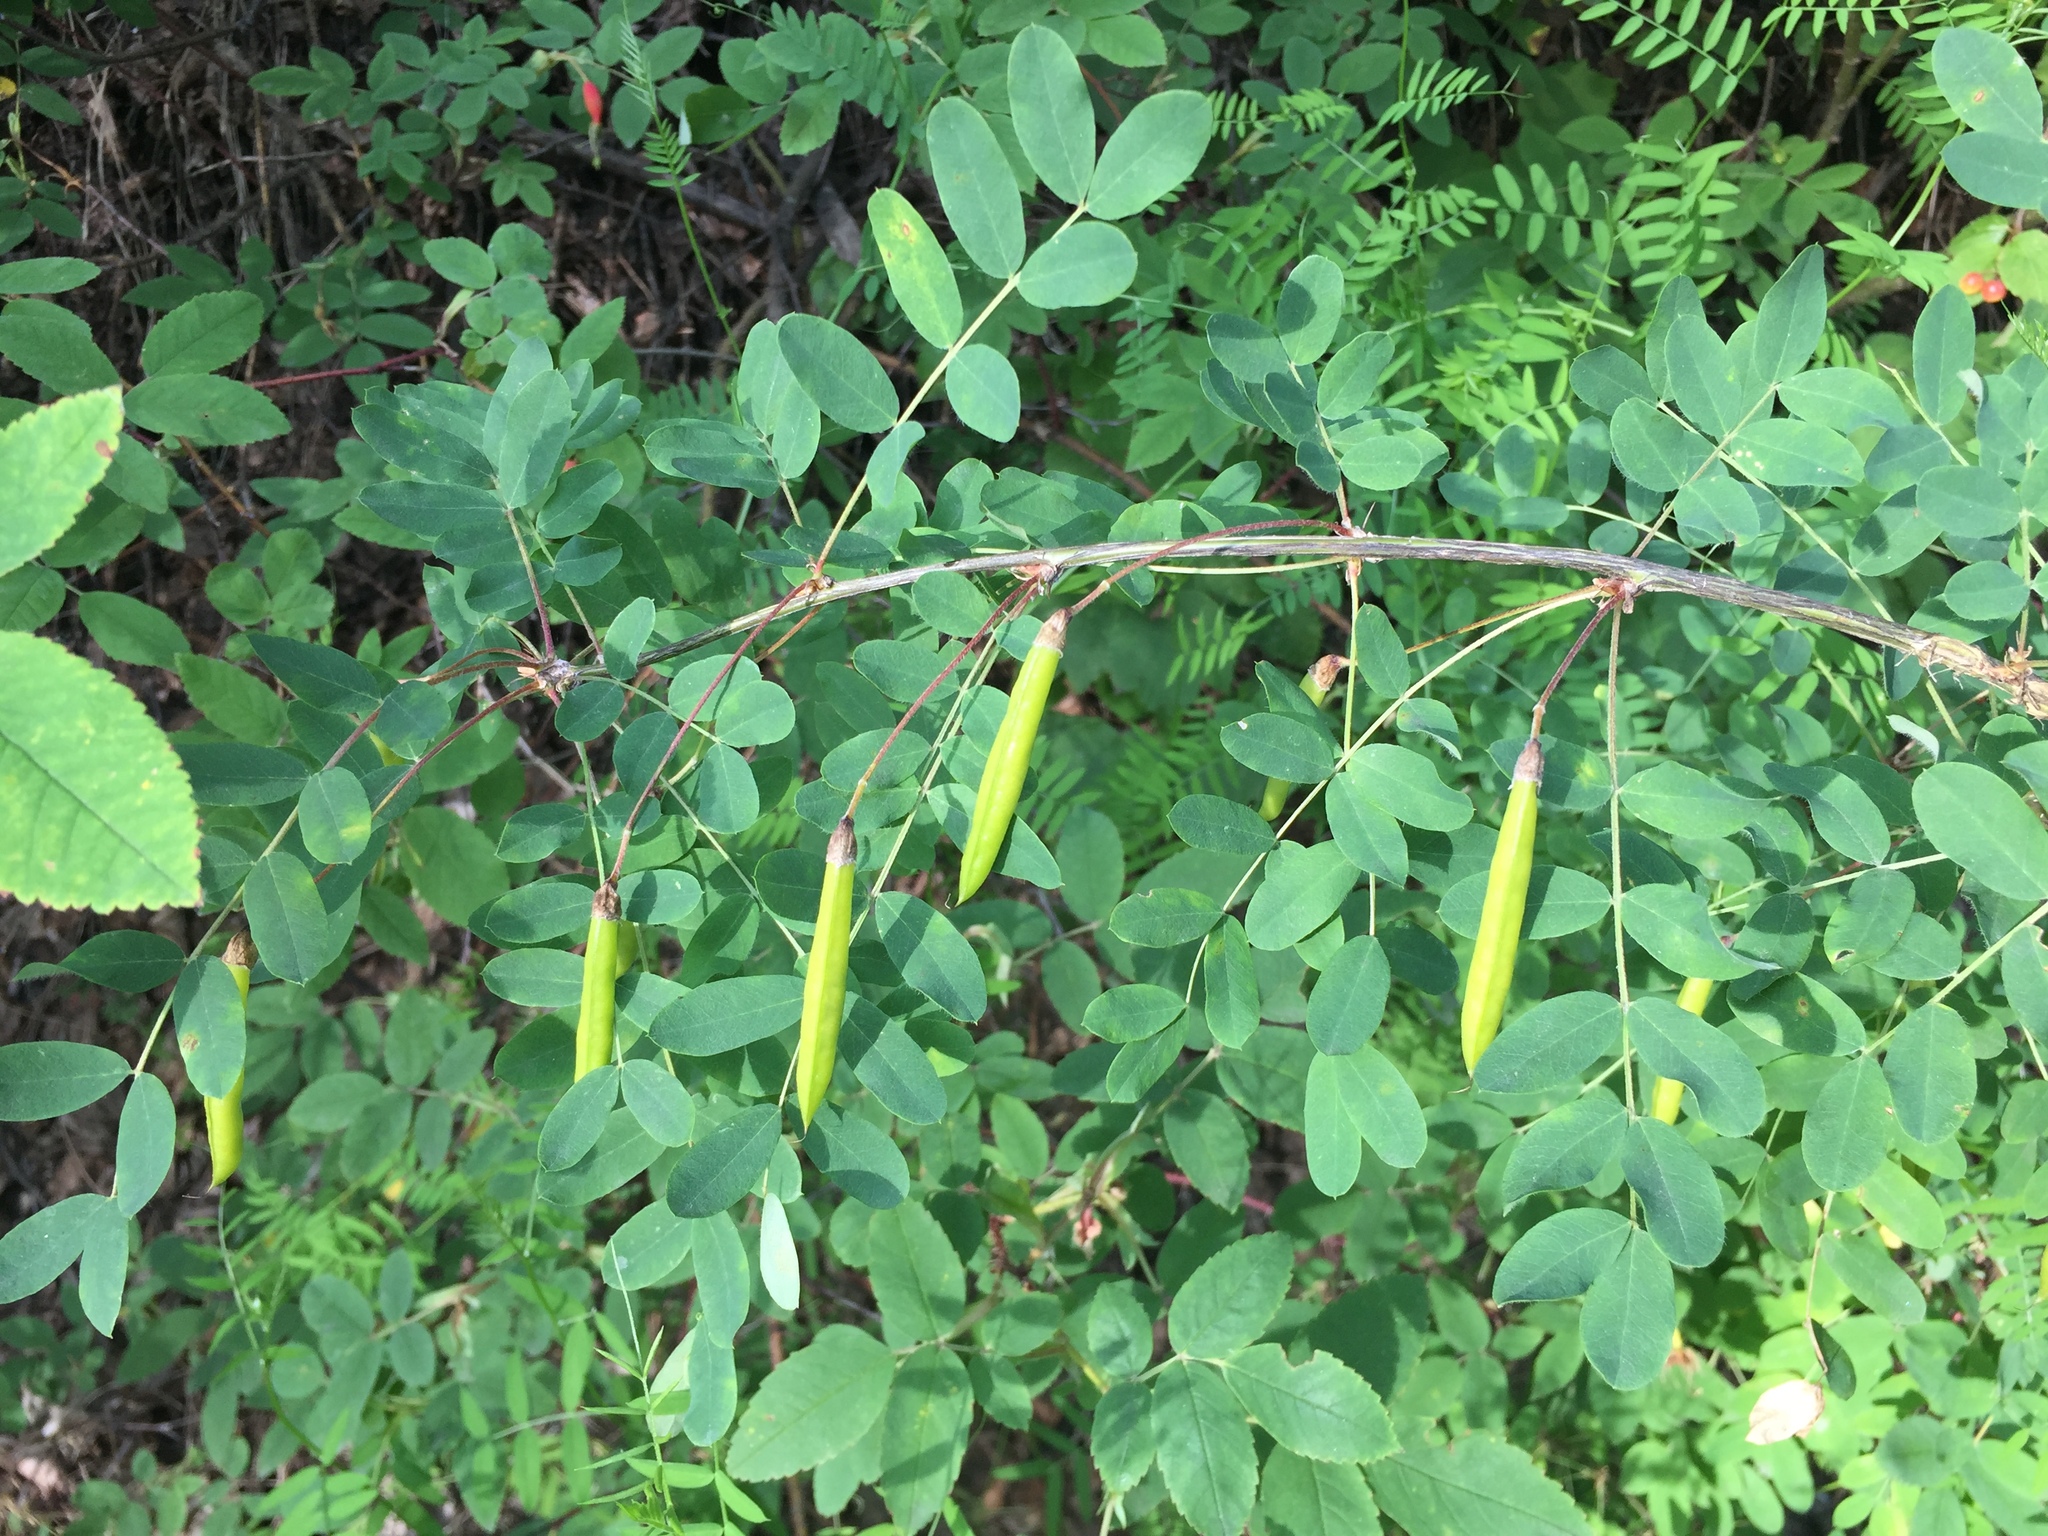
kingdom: Plantae
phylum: Tracheophyta
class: Magnoliopsida
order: Fabales
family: Fabaceae
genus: Caragana
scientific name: Caragana arborescens
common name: Siberian peashrub
